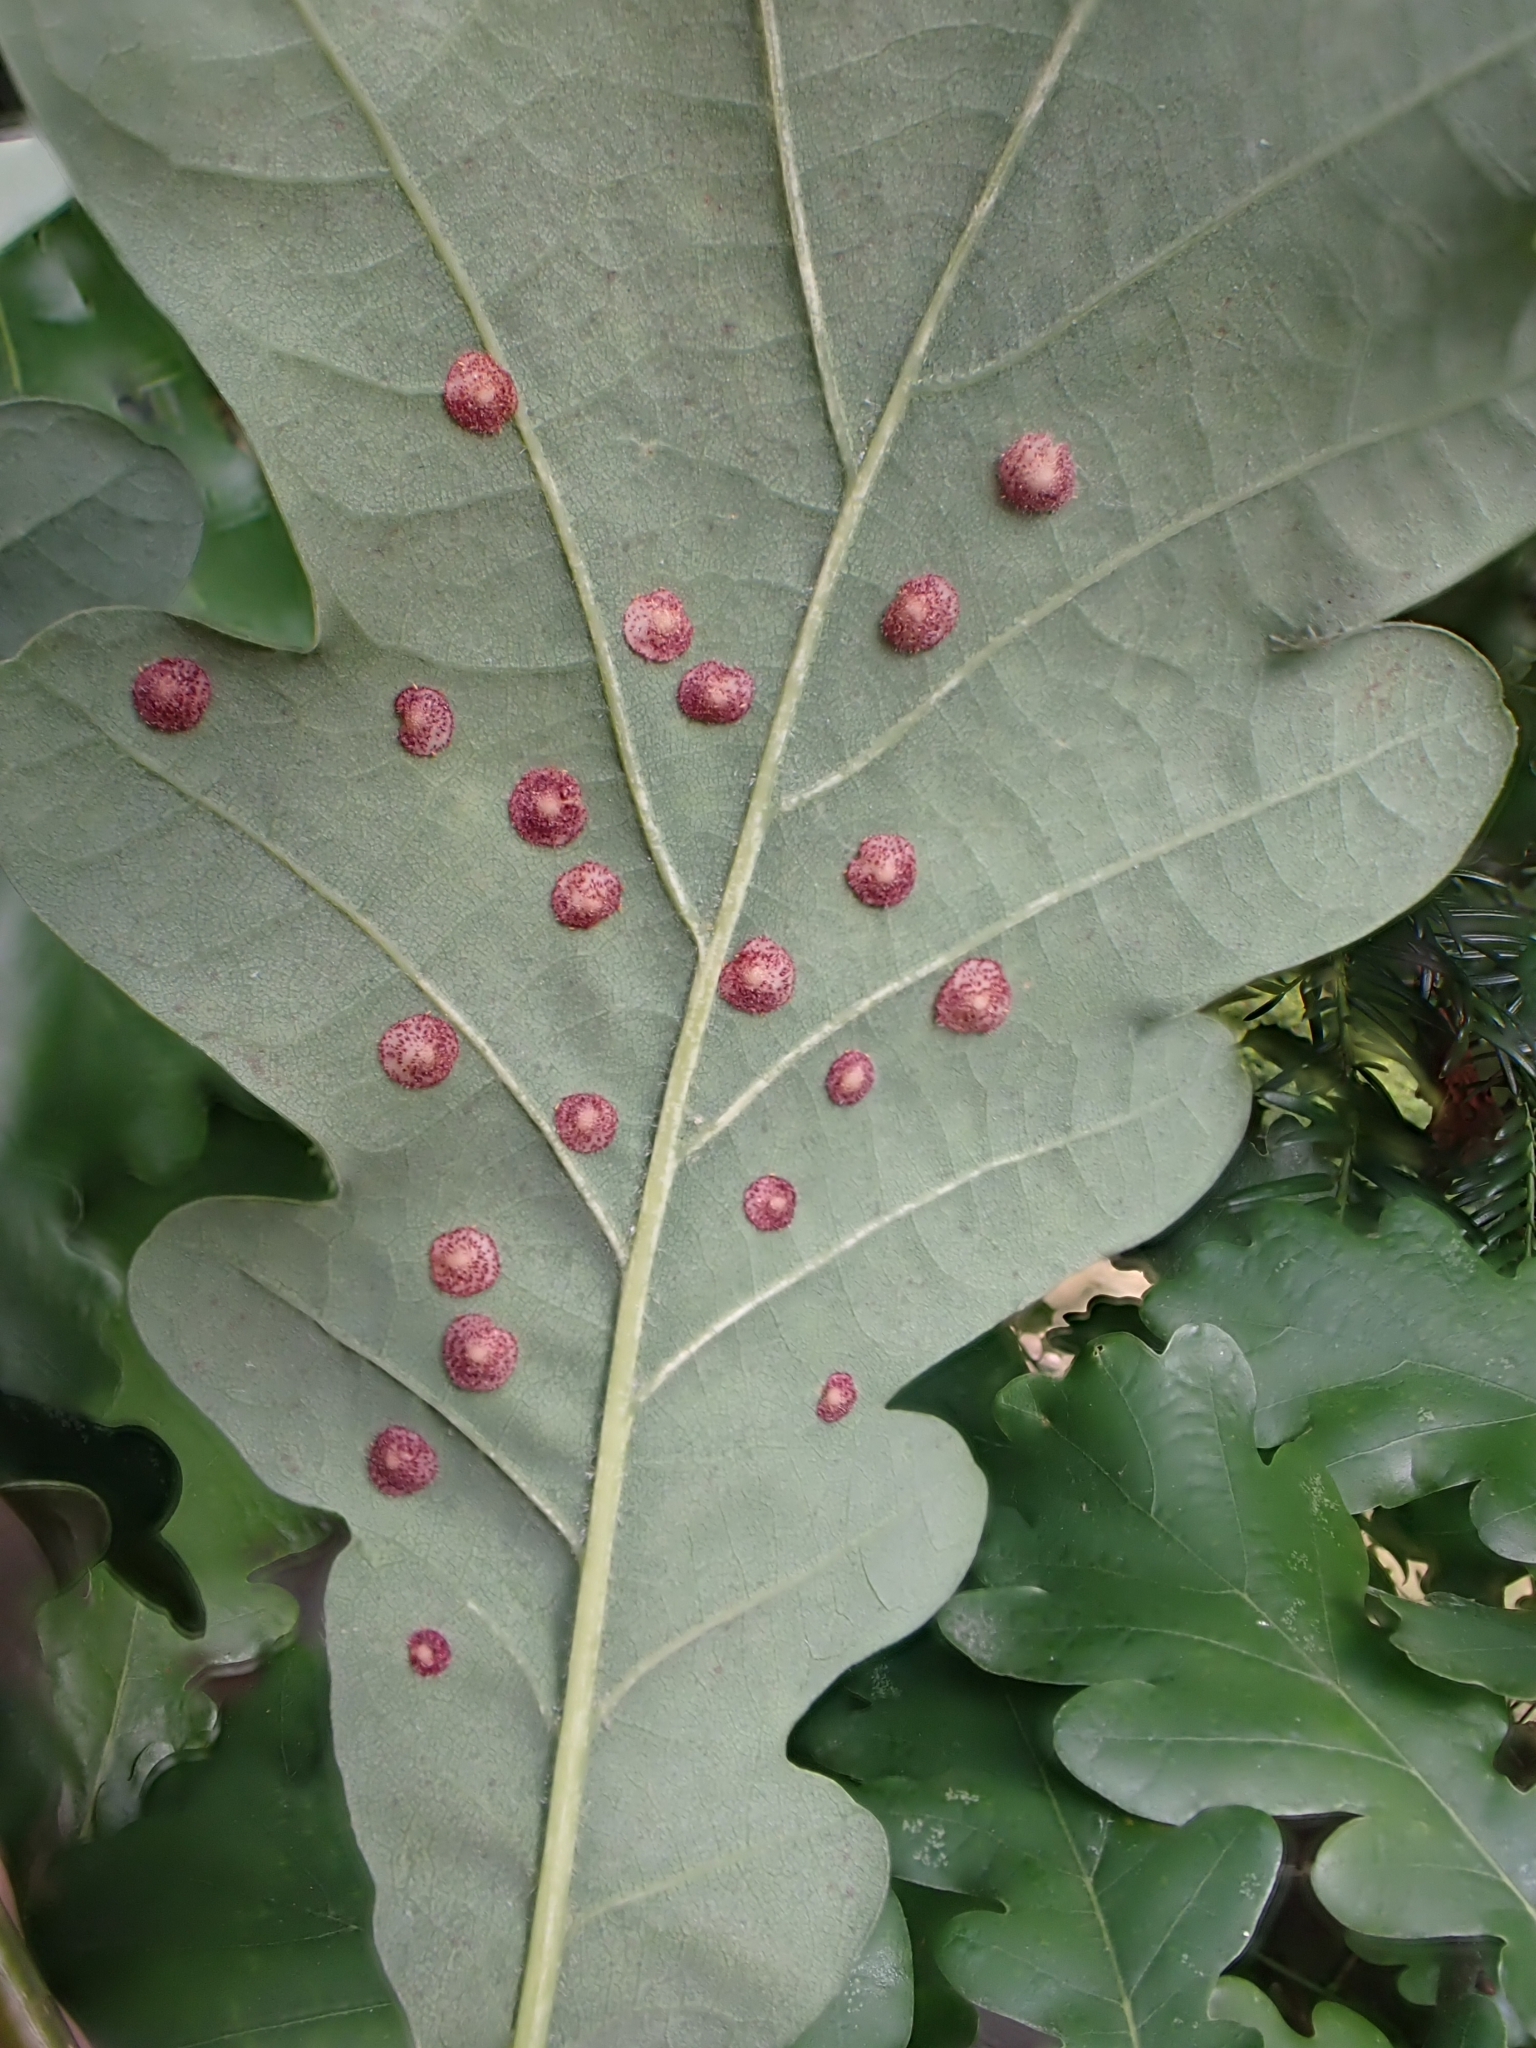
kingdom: Animalia
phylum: Arthropoda
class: Insecta
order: Hymenoptera
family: Cynipidae
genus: Neuroterus
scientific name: Neuroterus quercusbaccarum
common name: Common spangle gall
